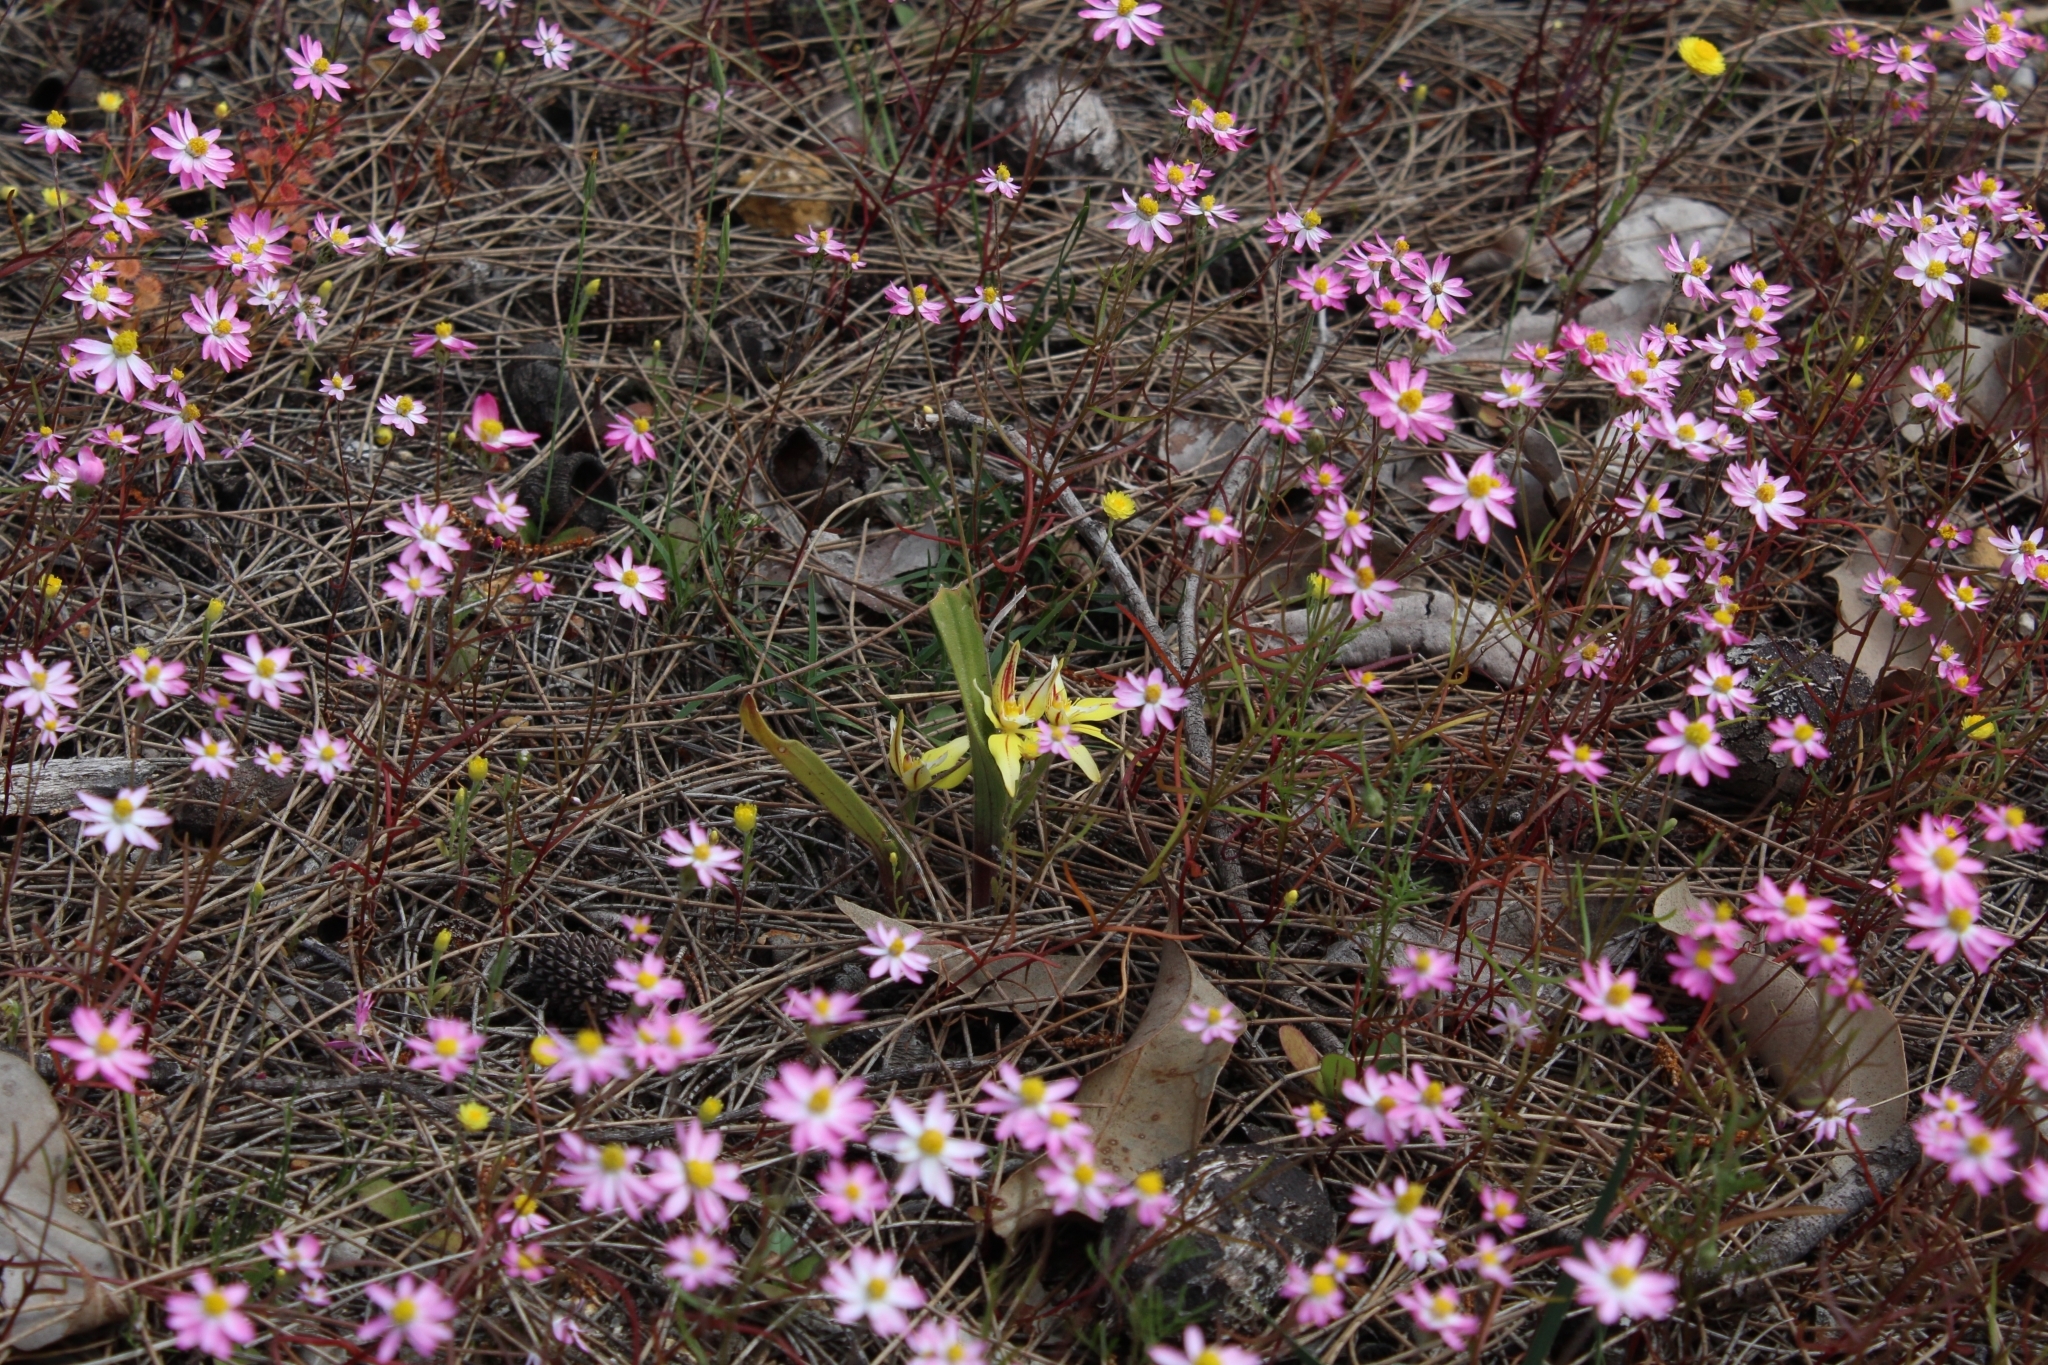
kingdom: Plantae
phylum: Tracheophyta
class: Liliopsida
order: Asparagales
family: Orchidaceae
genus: Caladenia
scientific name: Caladenia flava
